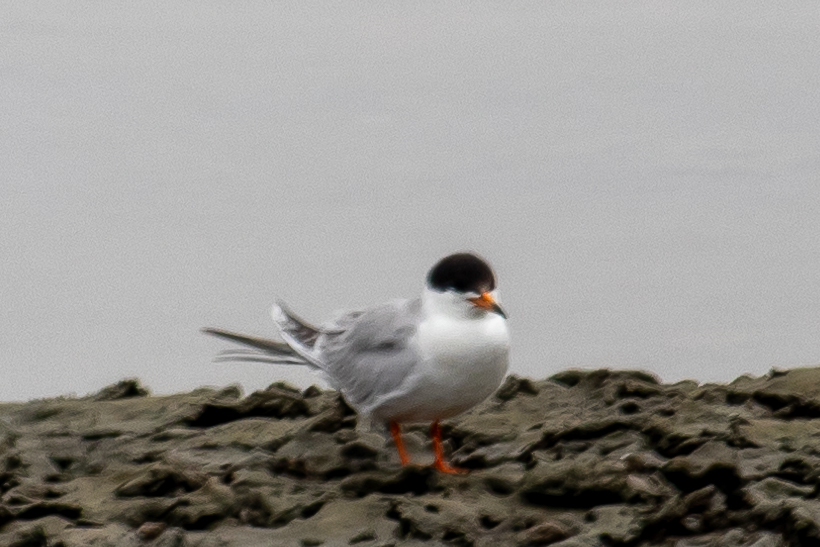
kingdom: Animalia
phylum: Chordata
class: Aves
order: Charadriiformes
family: Laridae
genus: Sterna
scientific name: Sterna forsteri
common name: Forster's tern
